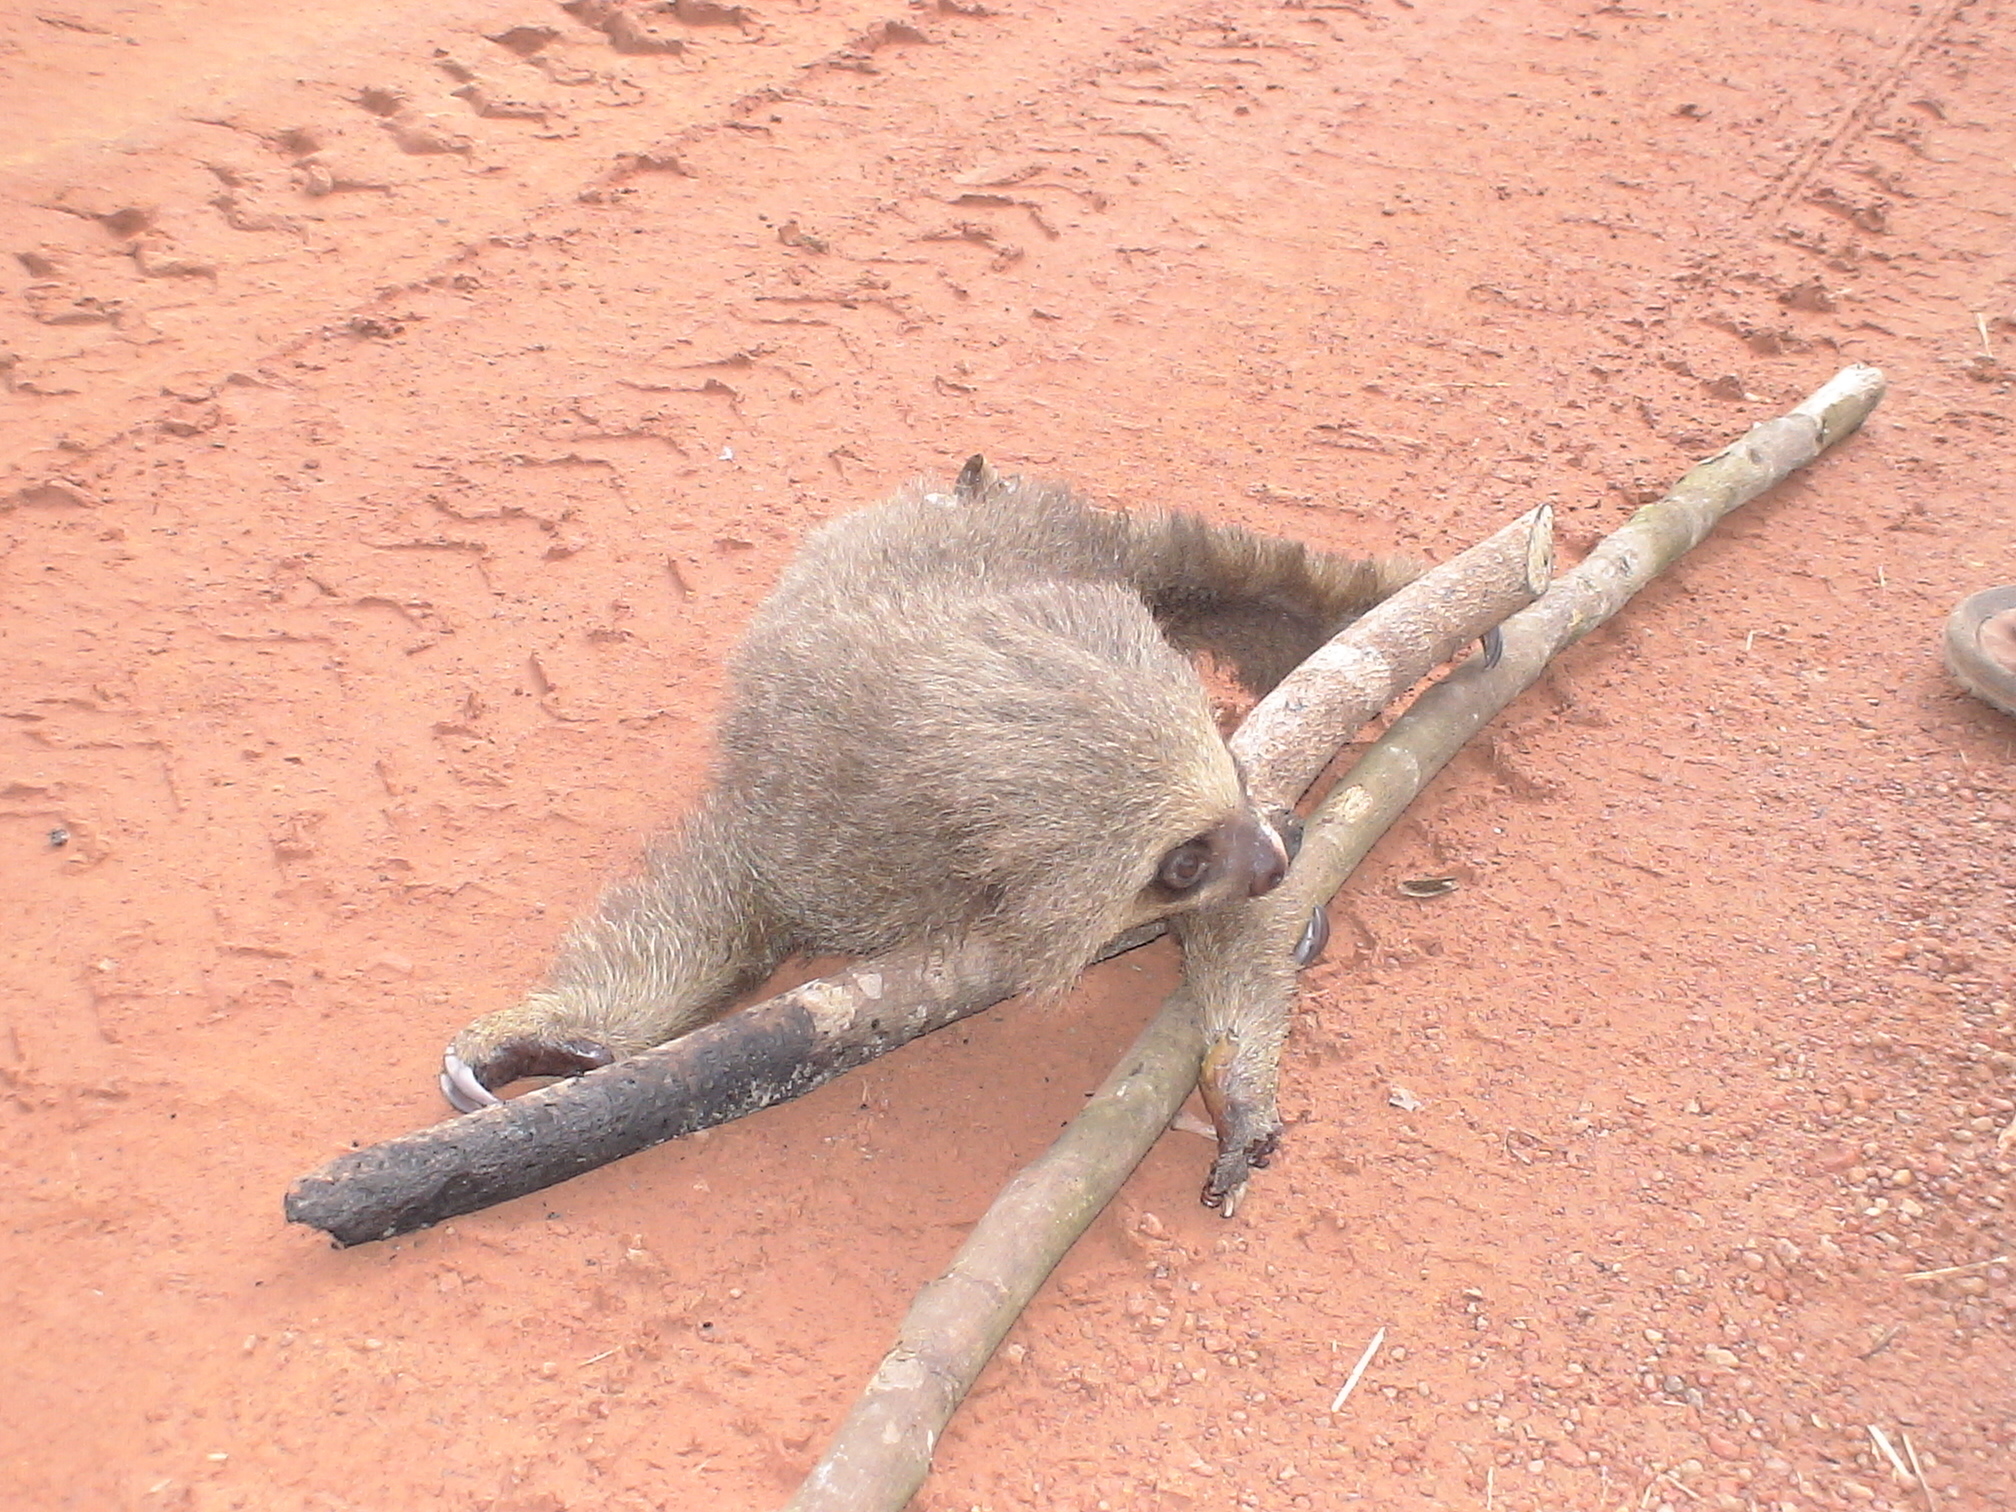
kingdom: Animalia
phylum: Chordata
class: Mammalia
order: Pilosa
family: Megalonychidae
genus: Choloepus
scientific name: Choloepus hoffmanni
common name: Hoffmann's two-toed sloth
